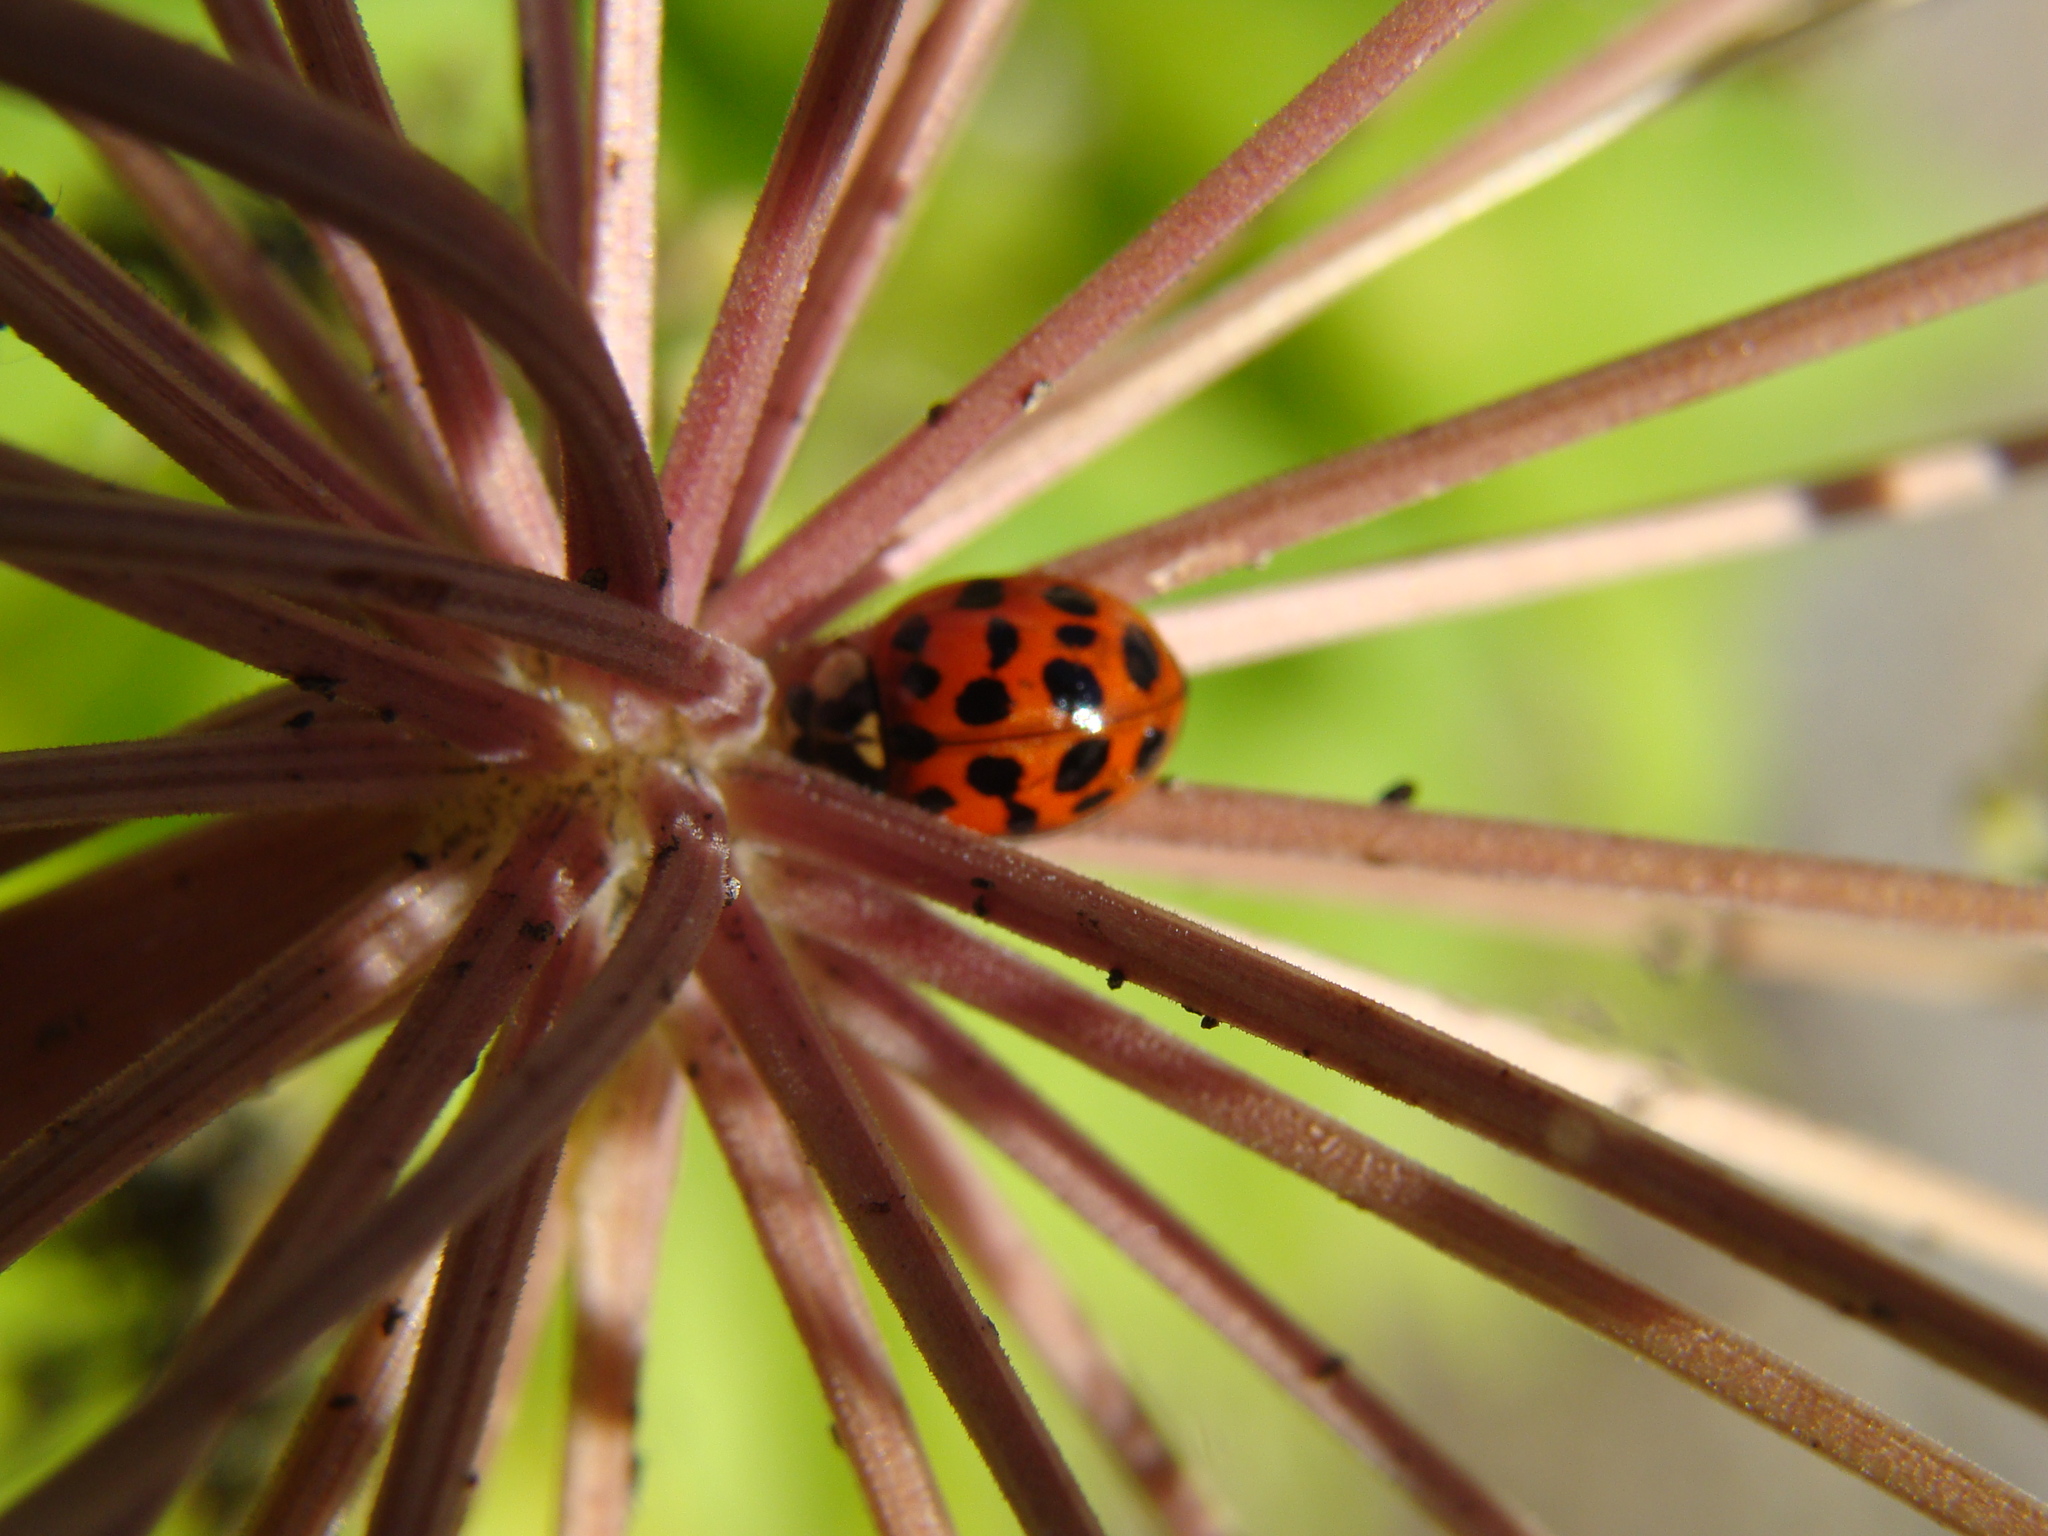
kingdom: Animalia
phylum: Arthropoda
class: Insecta
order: Coleoptera
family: Coccinellidae
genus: Harmonia
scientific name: Harmonia axyridis
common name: Harlequin ladybird
